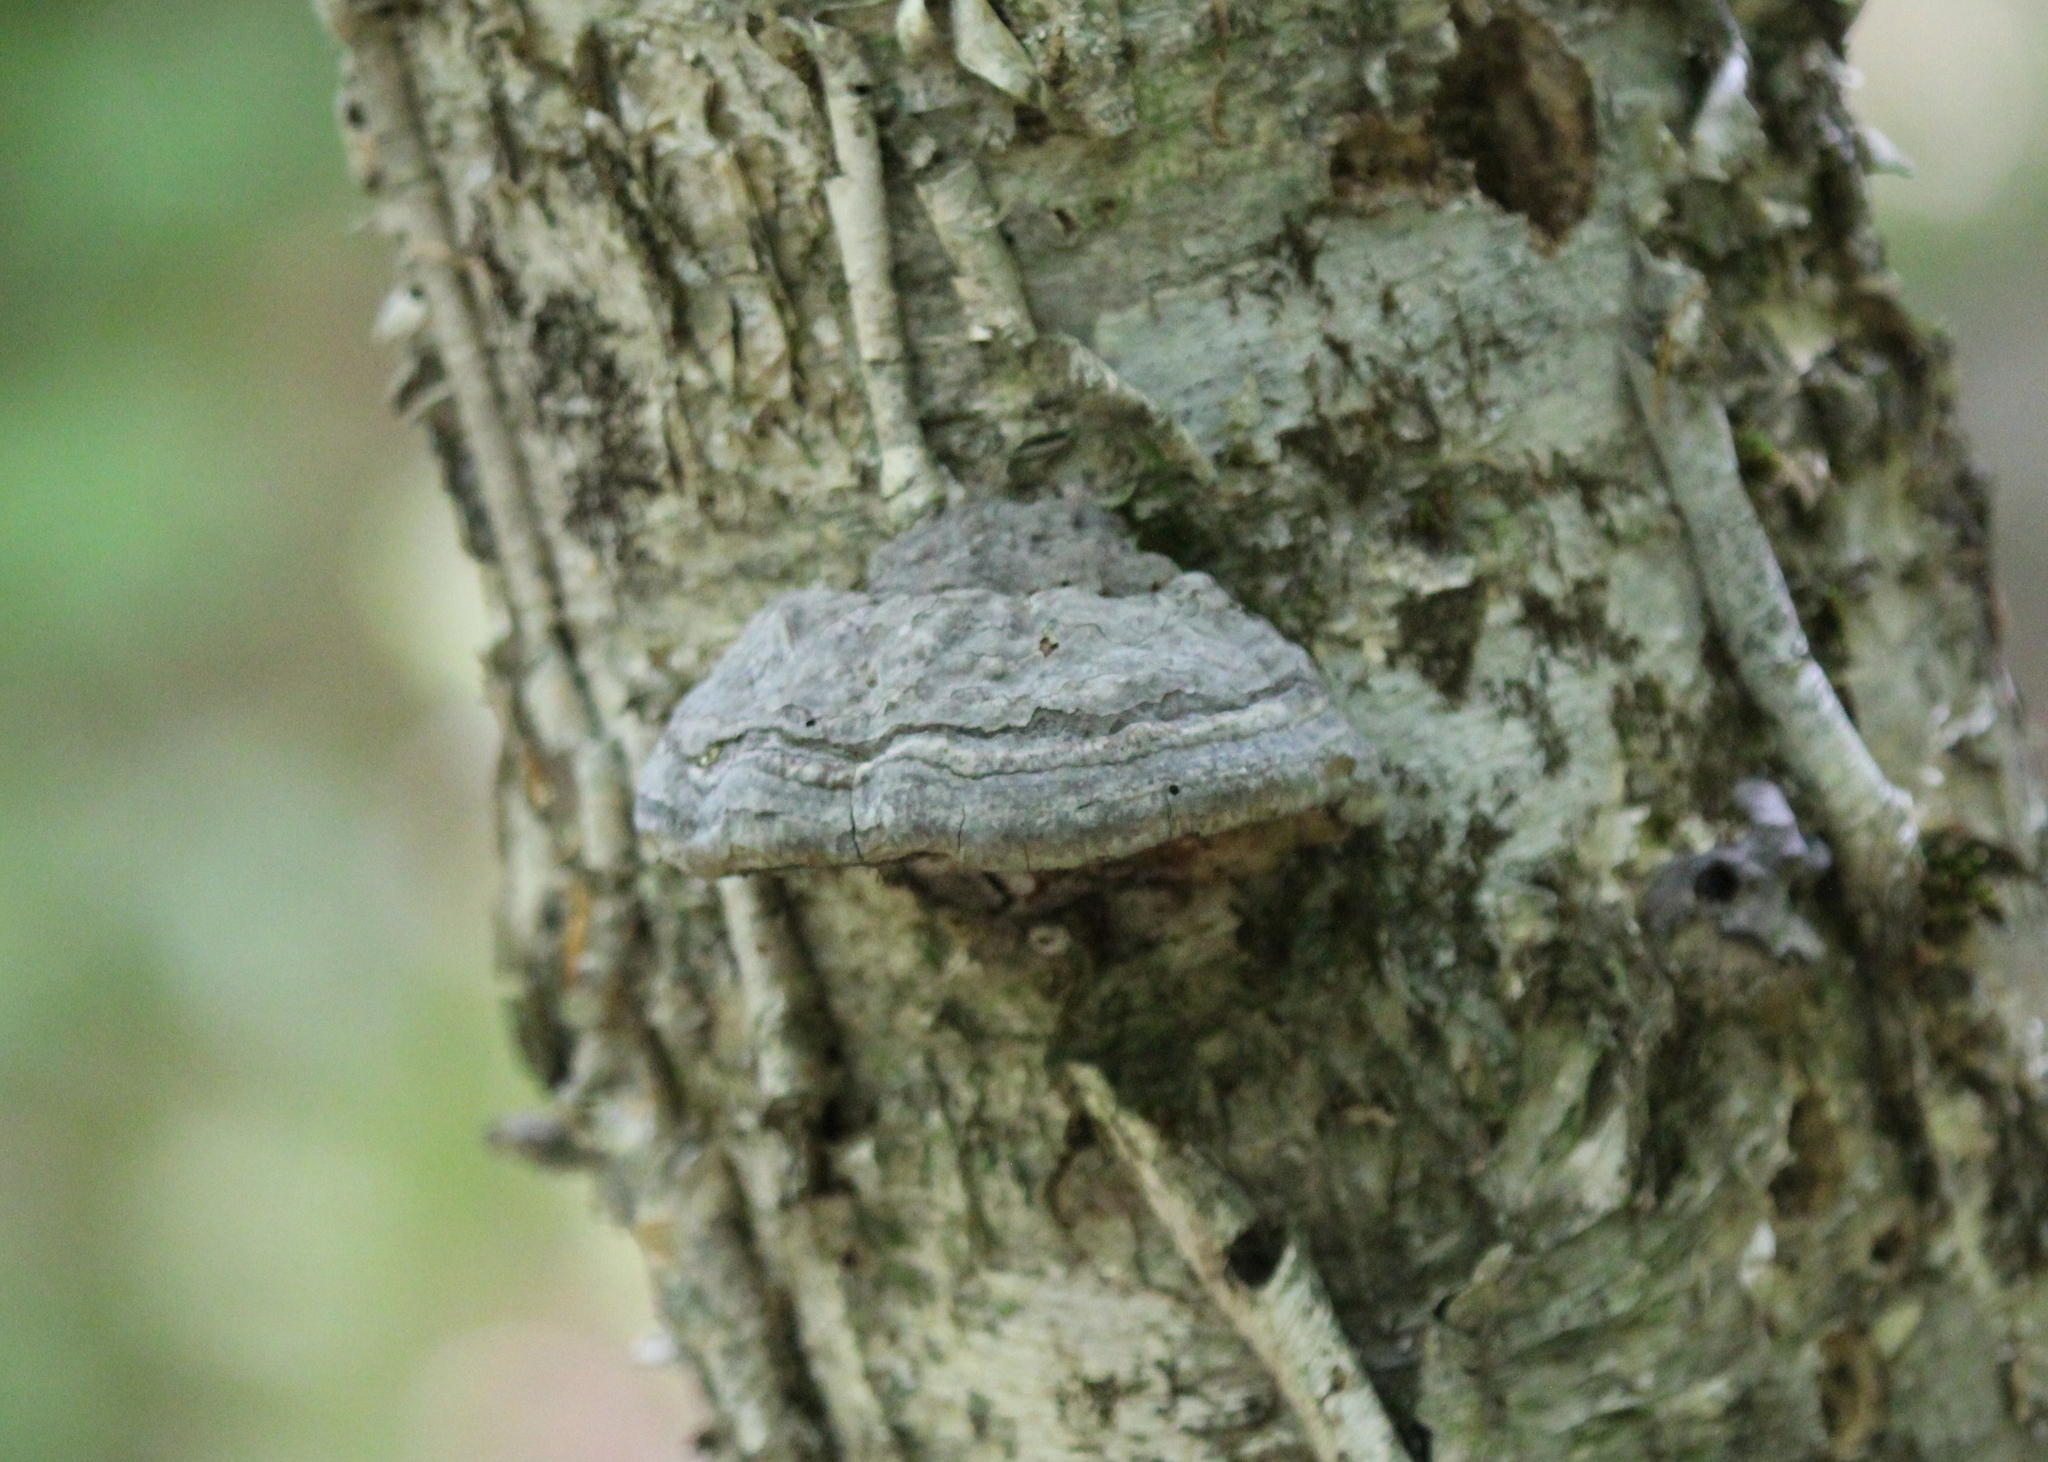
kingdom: Fungi
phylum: Basidiomycota
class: Agaricomycetes
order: Polyporales
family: Polyporaceae
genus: Fomes
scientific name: Fomes fomentarius
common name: Hoof fungus
